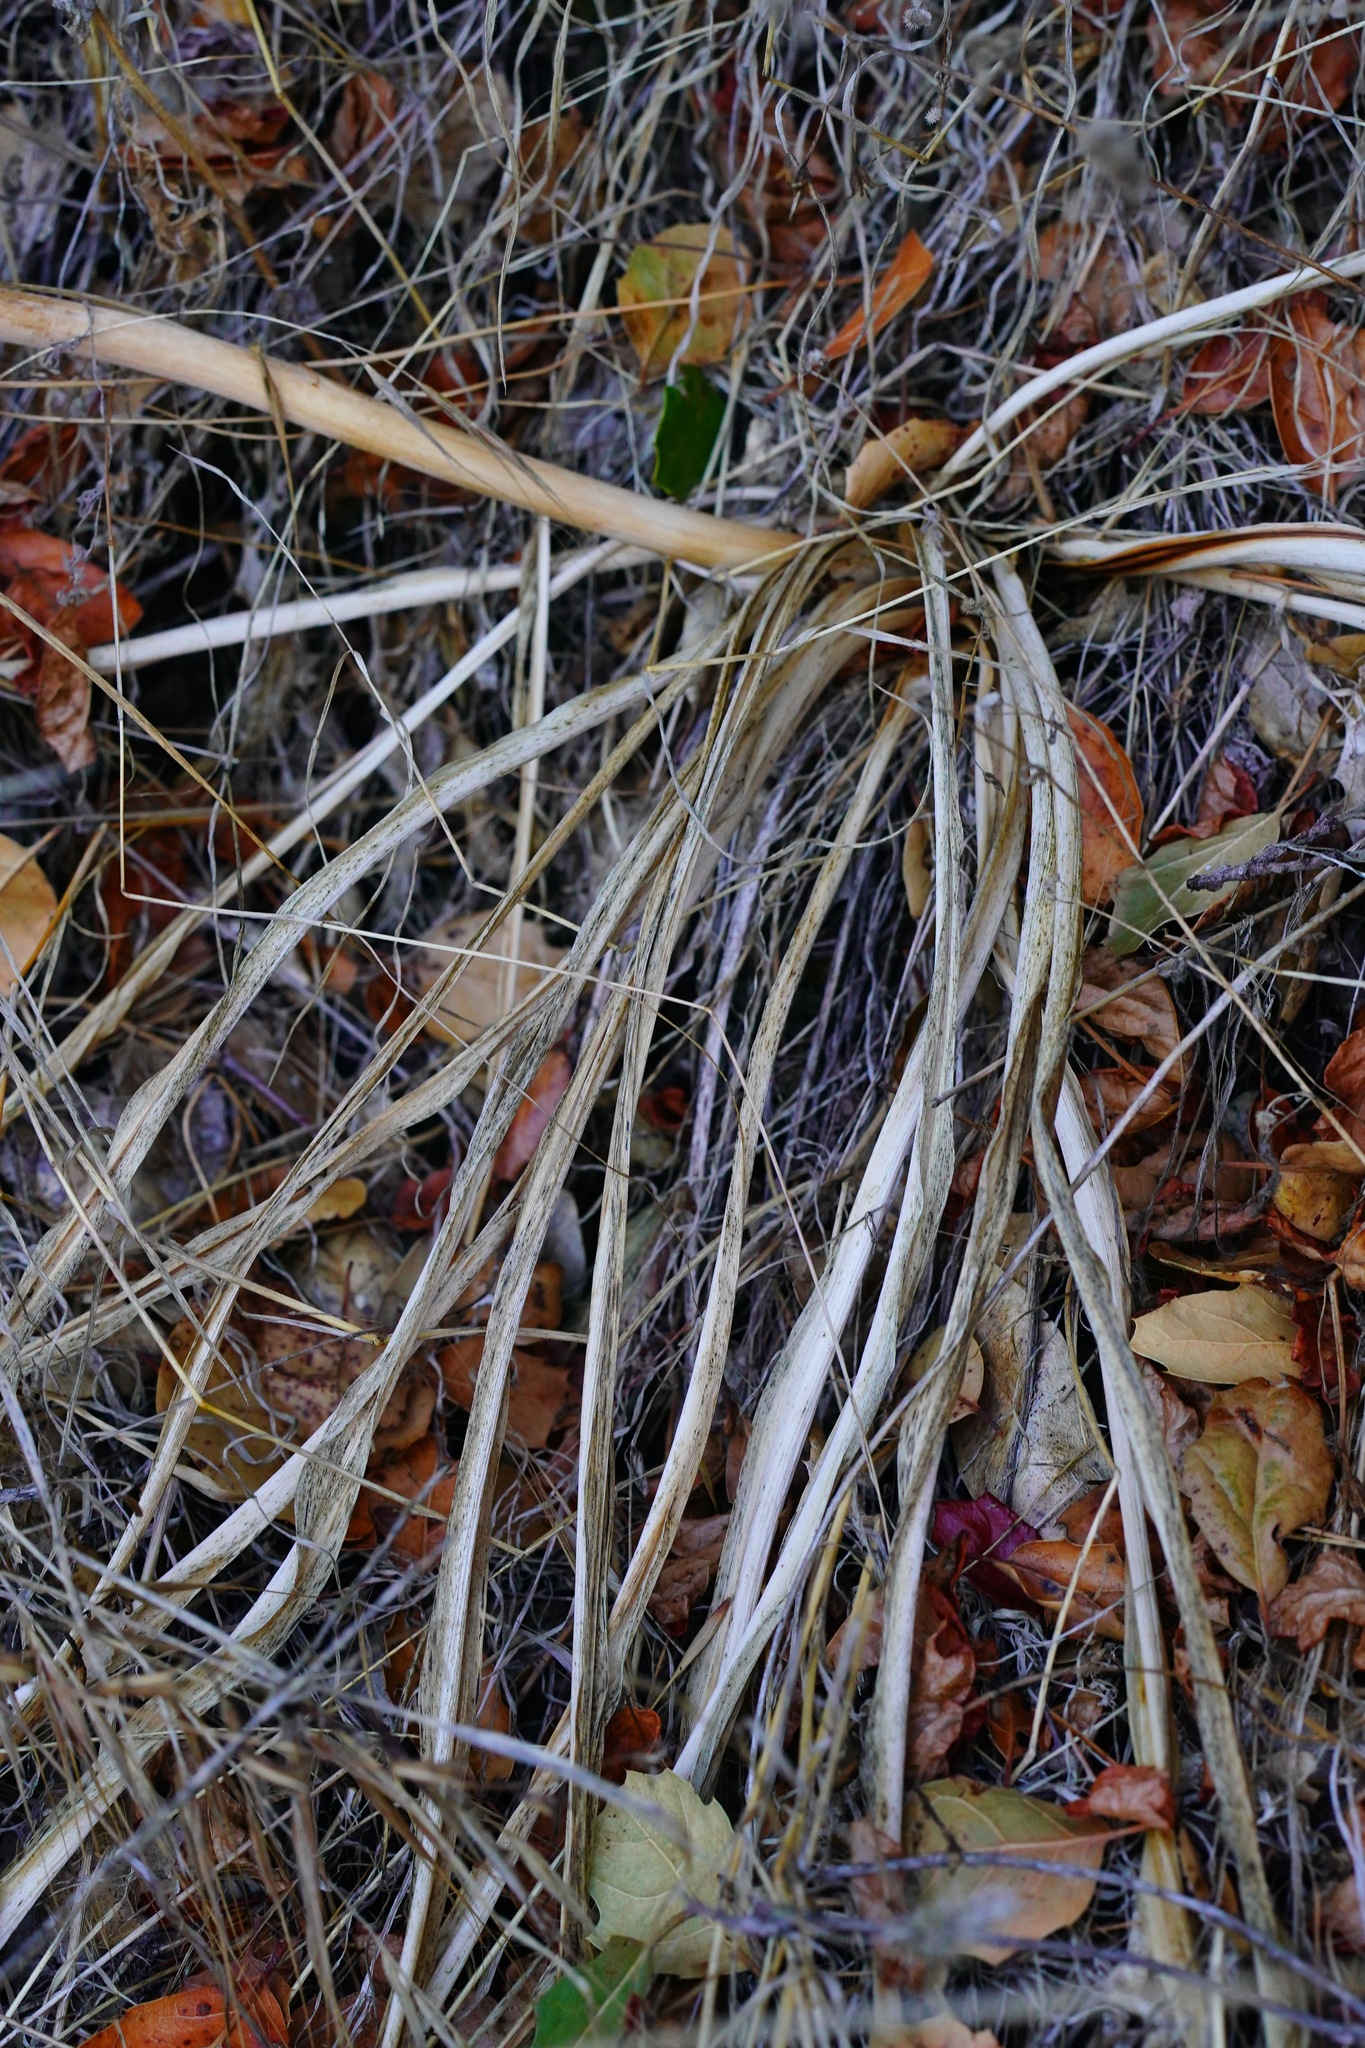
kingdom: Plantae
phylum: Tracheophyta
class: Liliopsida
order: Asparagales
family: Asparagaceae
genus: Chlorogalum
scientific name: Chlorogalum pomeridianum
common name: Amole
